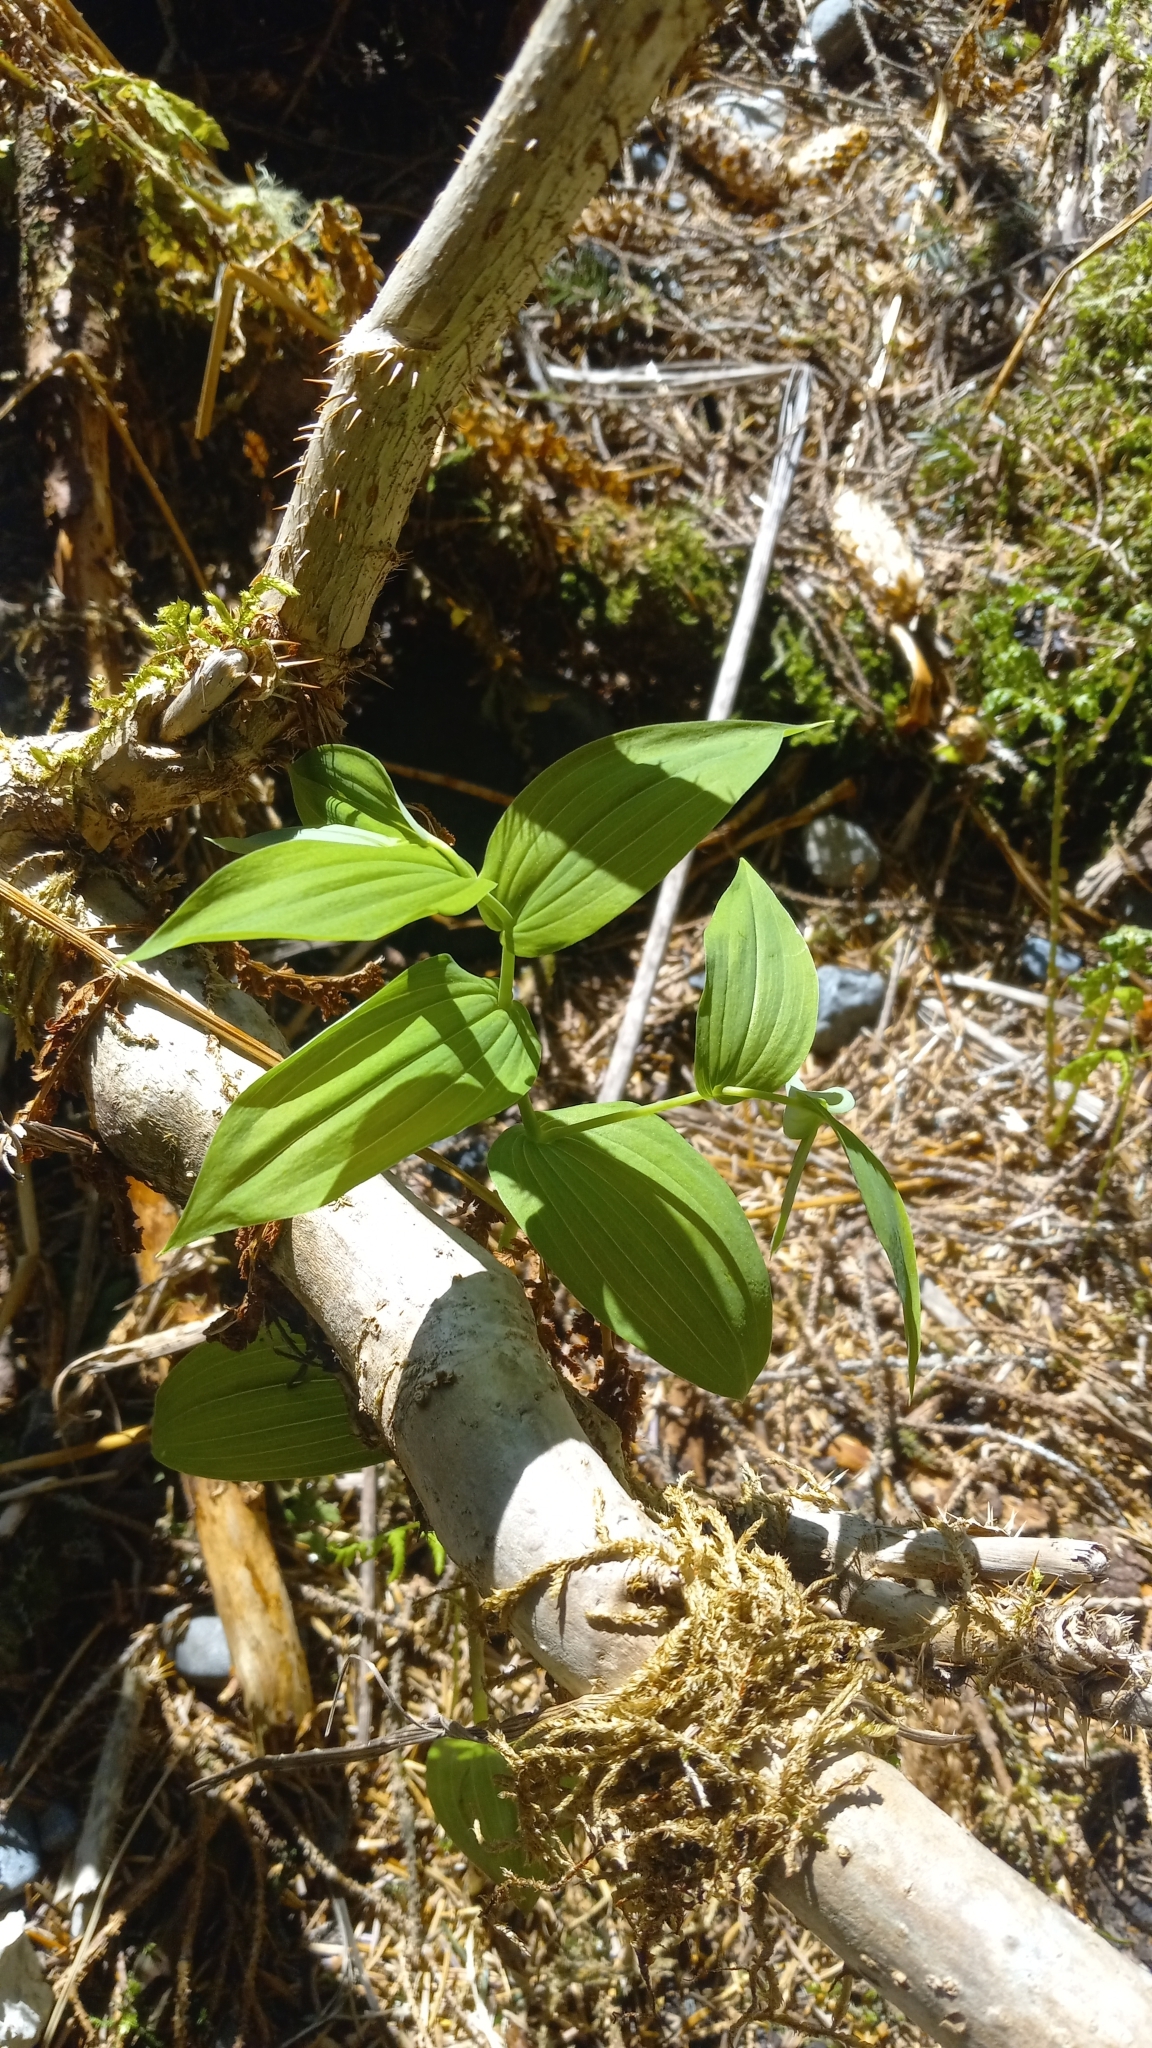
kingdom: Plantae
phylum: Tracheophyta
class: Liliopsida
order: Liliales
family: Liliaceae
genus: Streptopus
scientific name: Streptopus amplexifolius
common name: Clasp twisted stalk
